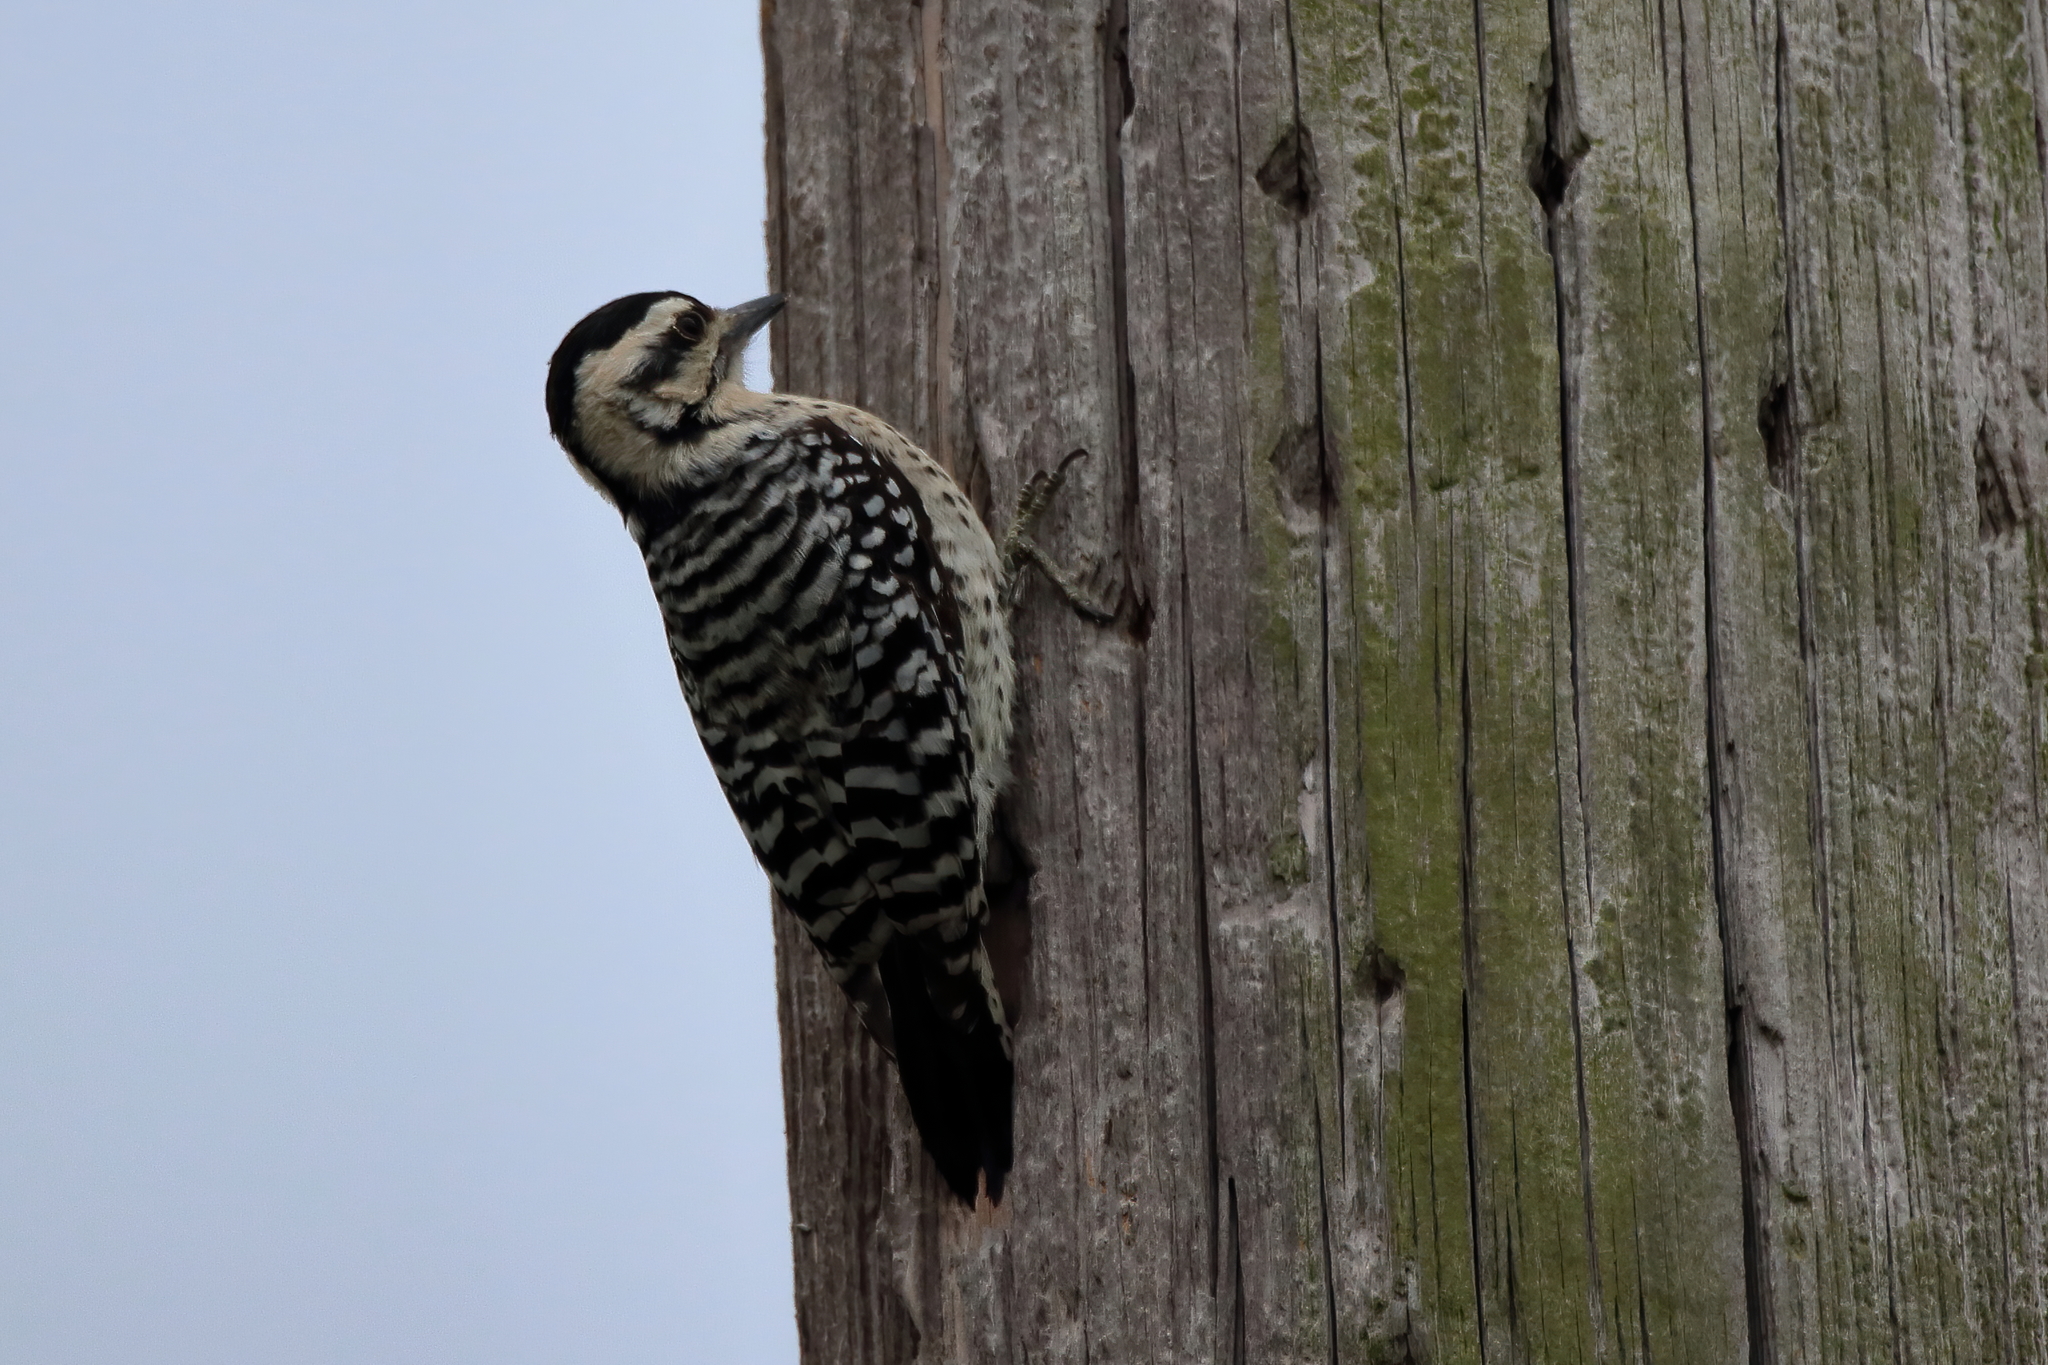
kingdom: Animalia
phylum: Chordata
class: Aves
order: Piciformes
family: Picidae
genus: Dryobates
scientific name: Dryobates scalaris
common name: Ladder-backed woodpecker
